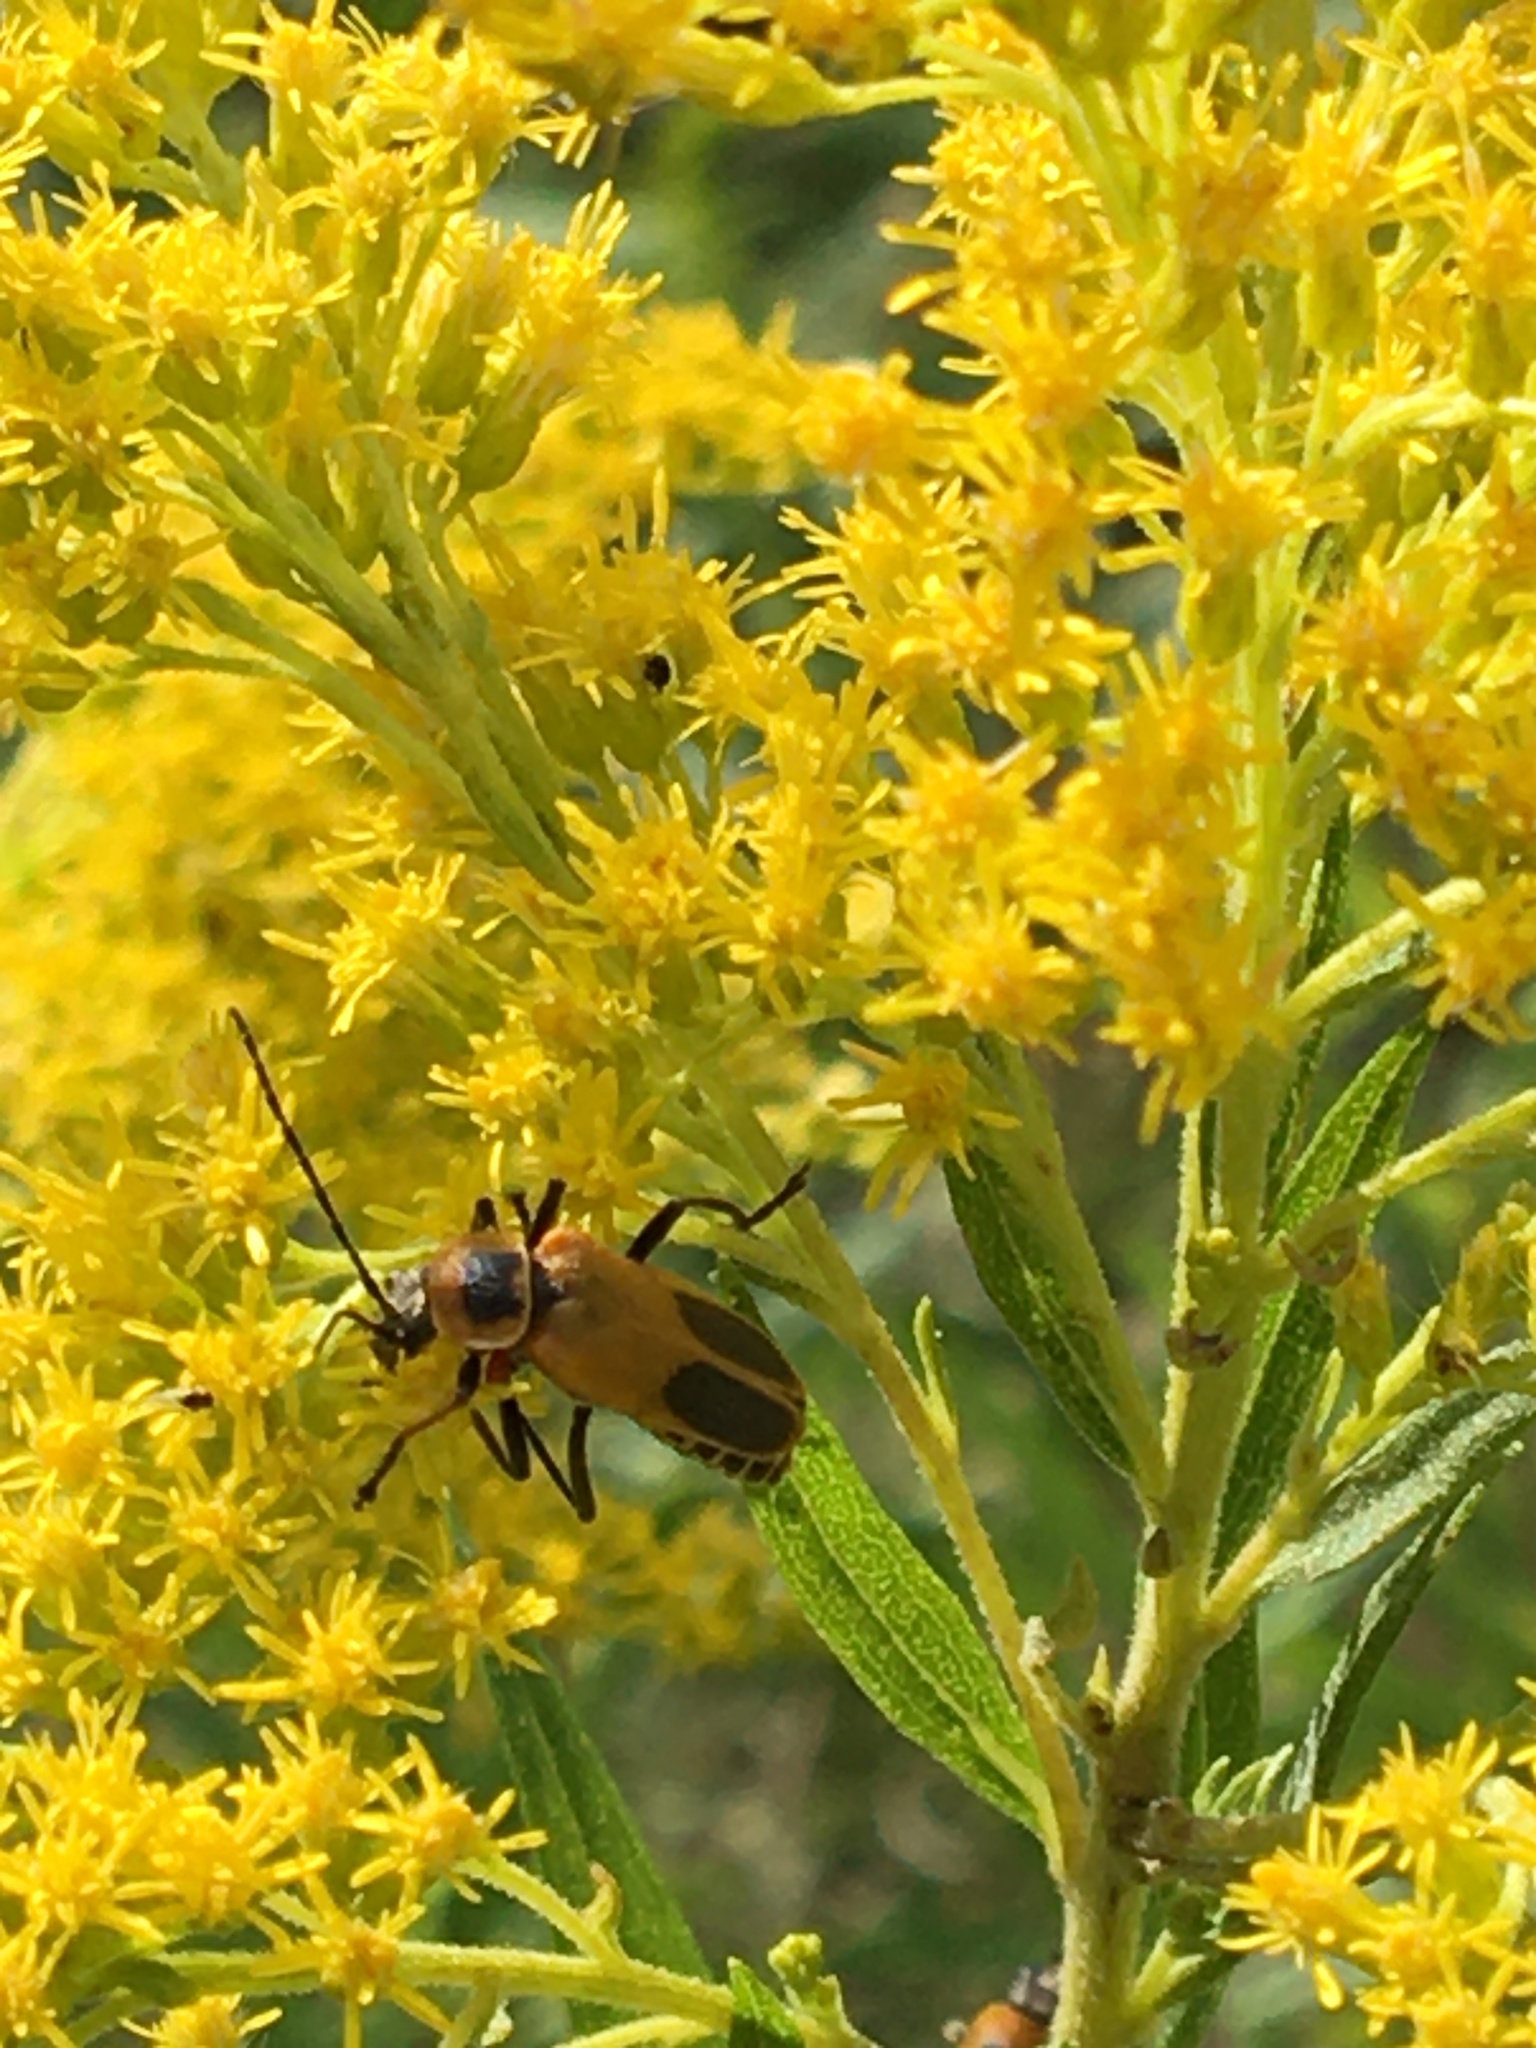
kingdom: Animalia
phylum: Arthropoda
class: Insecta
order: Coleoptera
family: Cantharidae
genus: Chauliognathus
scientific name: Chauliognathus pensylvanicus
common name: Goldenrod soldier beetle
